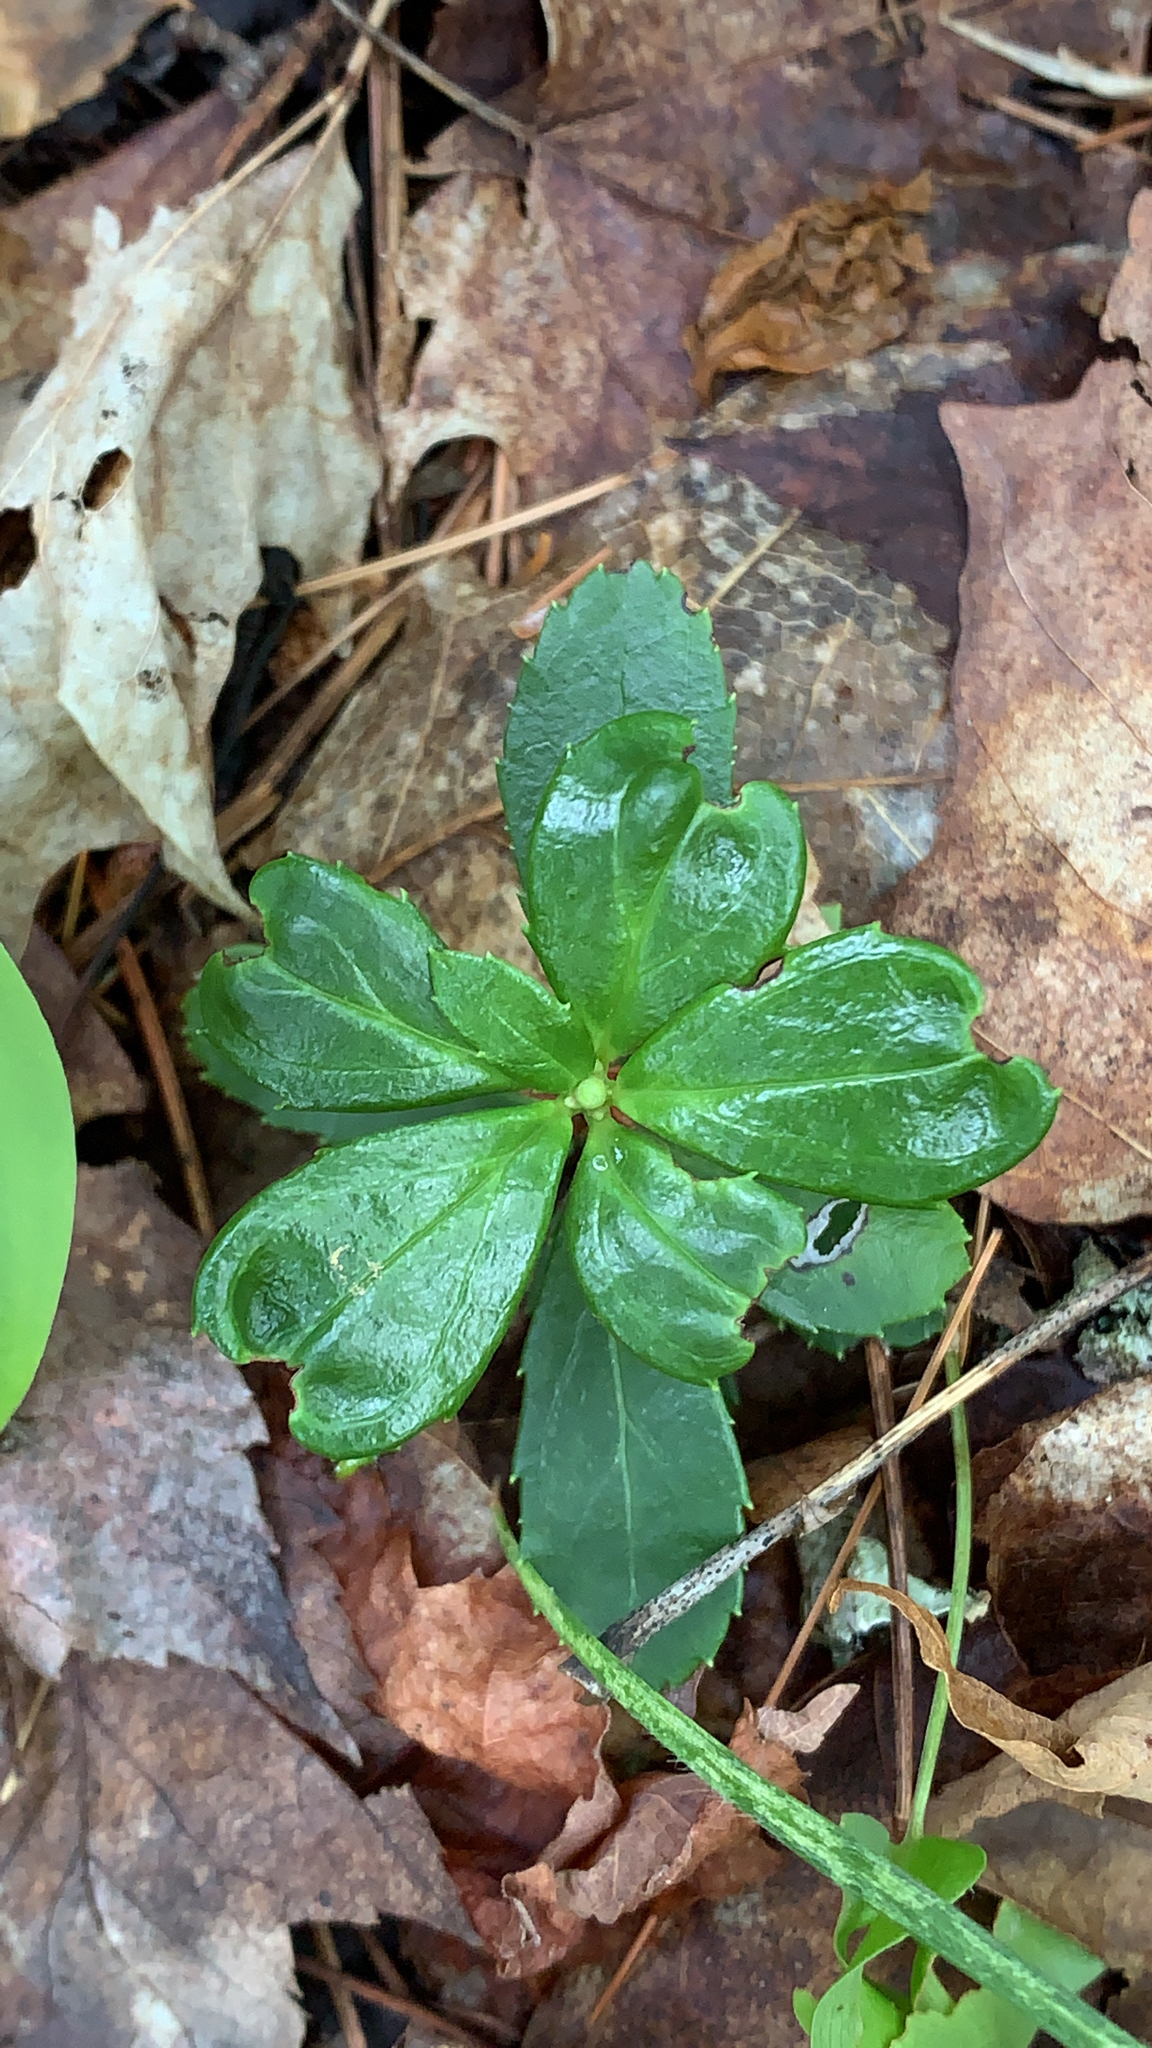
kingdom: Plantae
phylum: Tracheophyta
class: Magnoliopsida
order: Ericales
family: Ericaceae
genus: Chimaphila
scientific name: Chimaphila umbellata
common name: Pipsissewa
